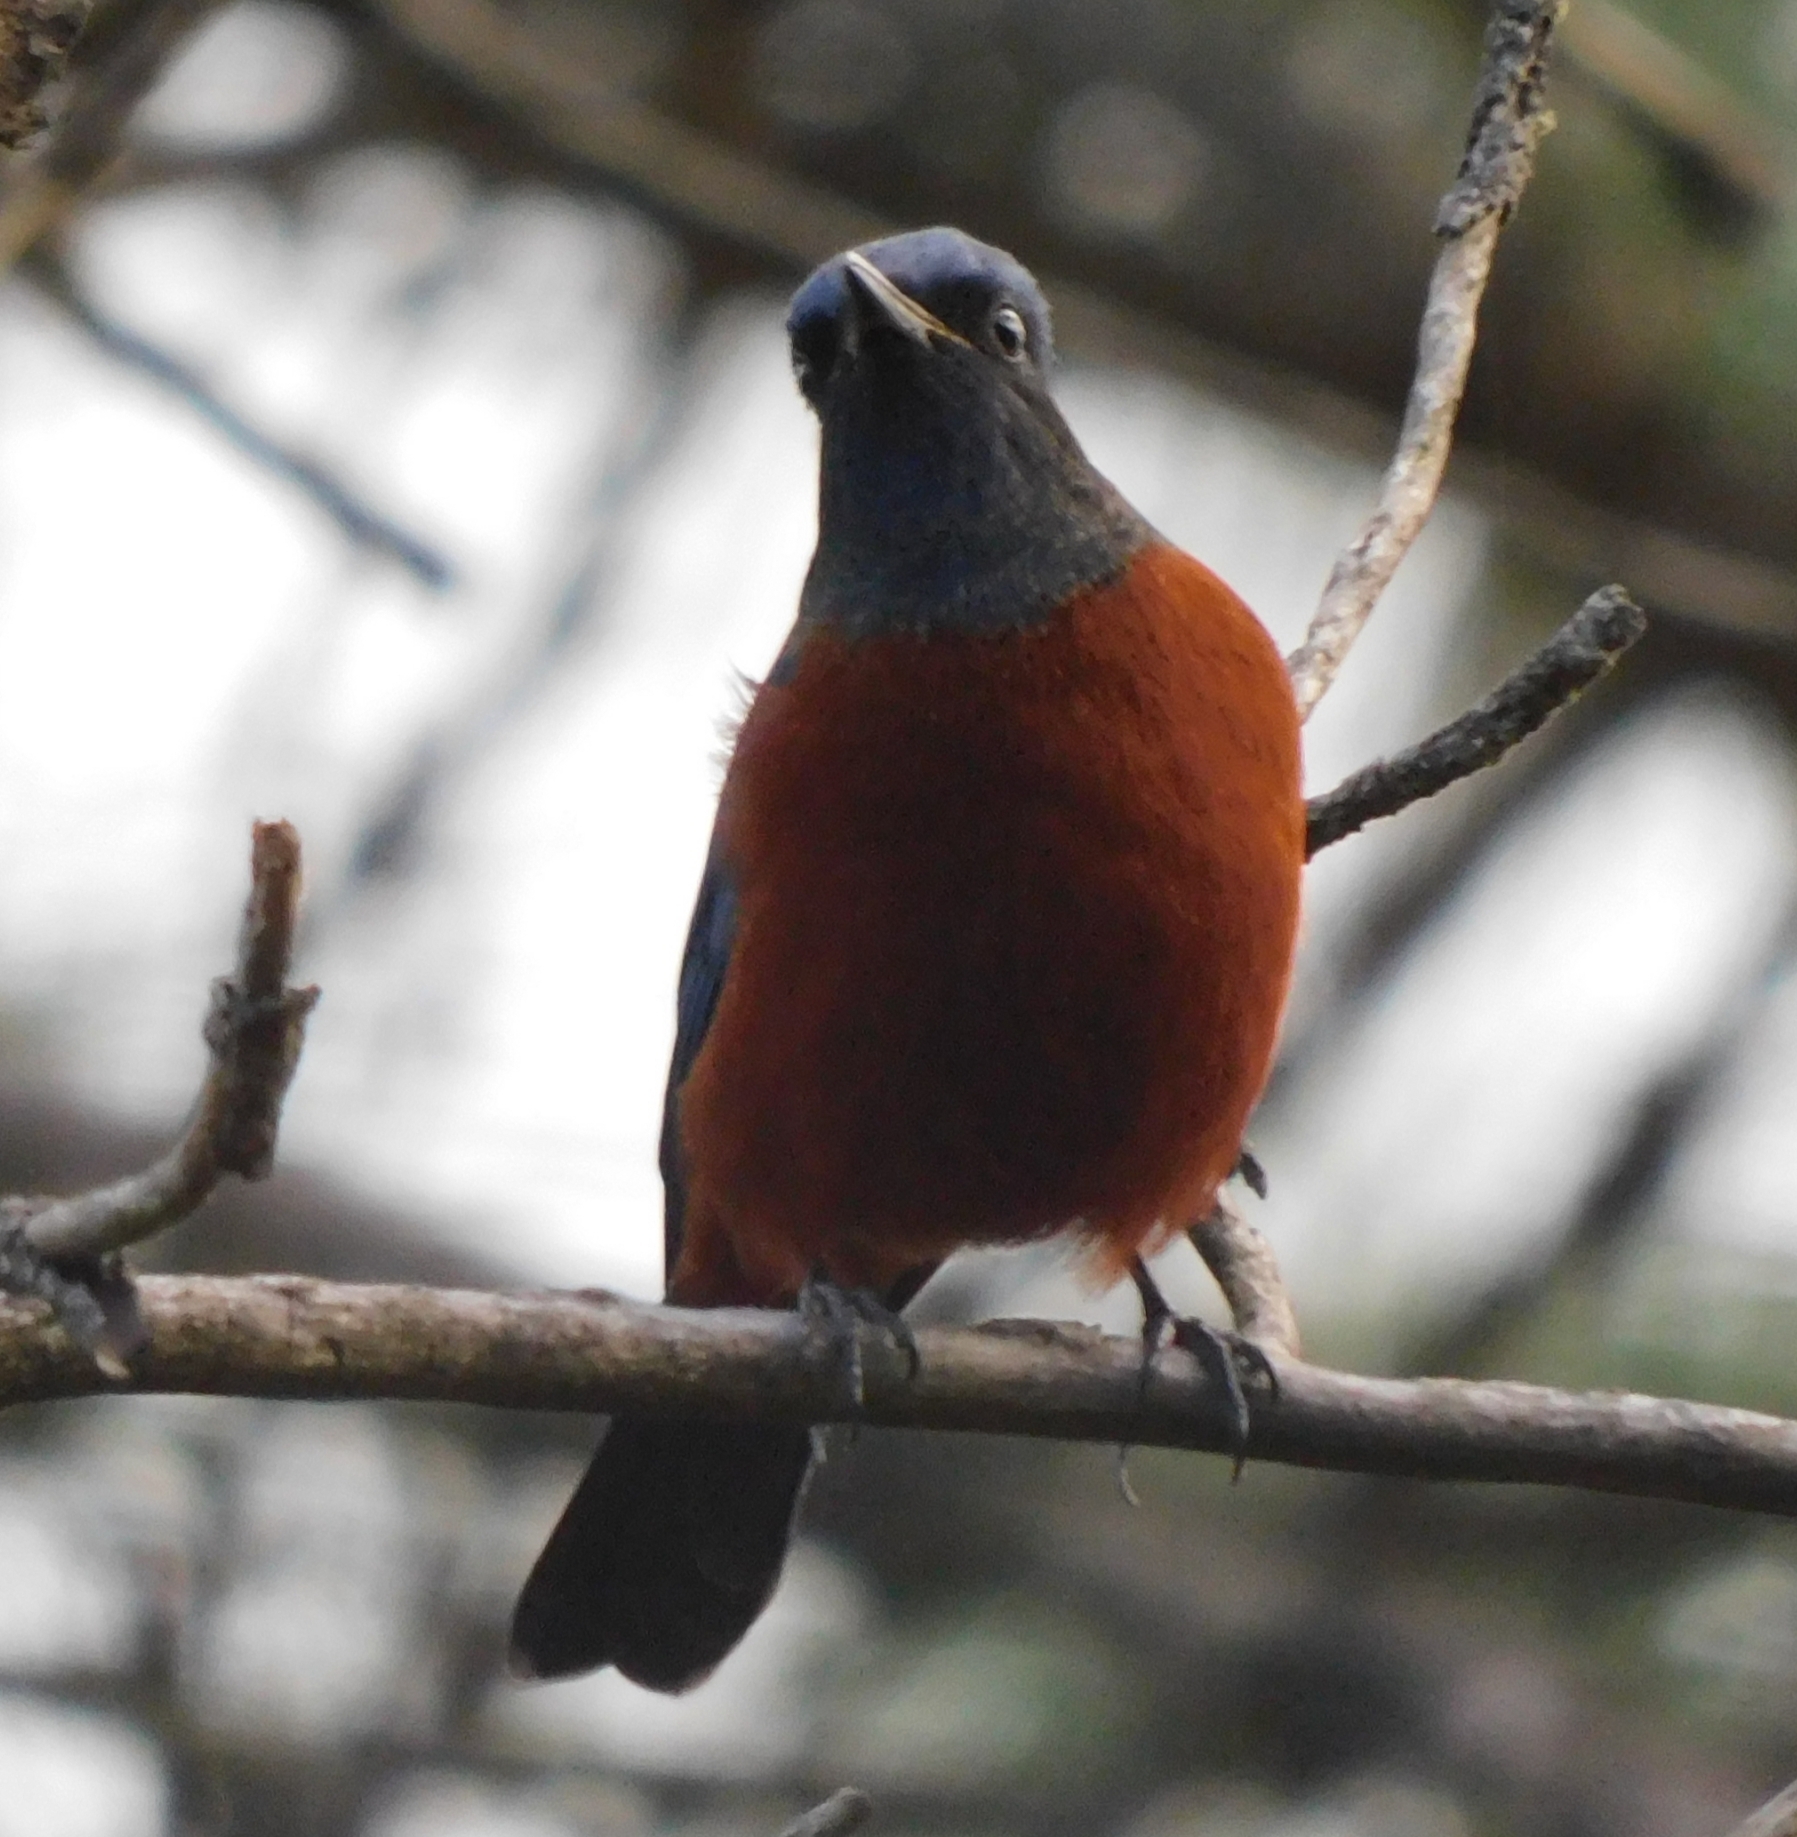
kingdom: Animalia
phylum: Chordata
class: Aves
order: Passeriformes
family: Muscicapidae
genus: Monticola
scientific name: Monticola rufiventris
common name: Chestnut-bellied rock thrush
